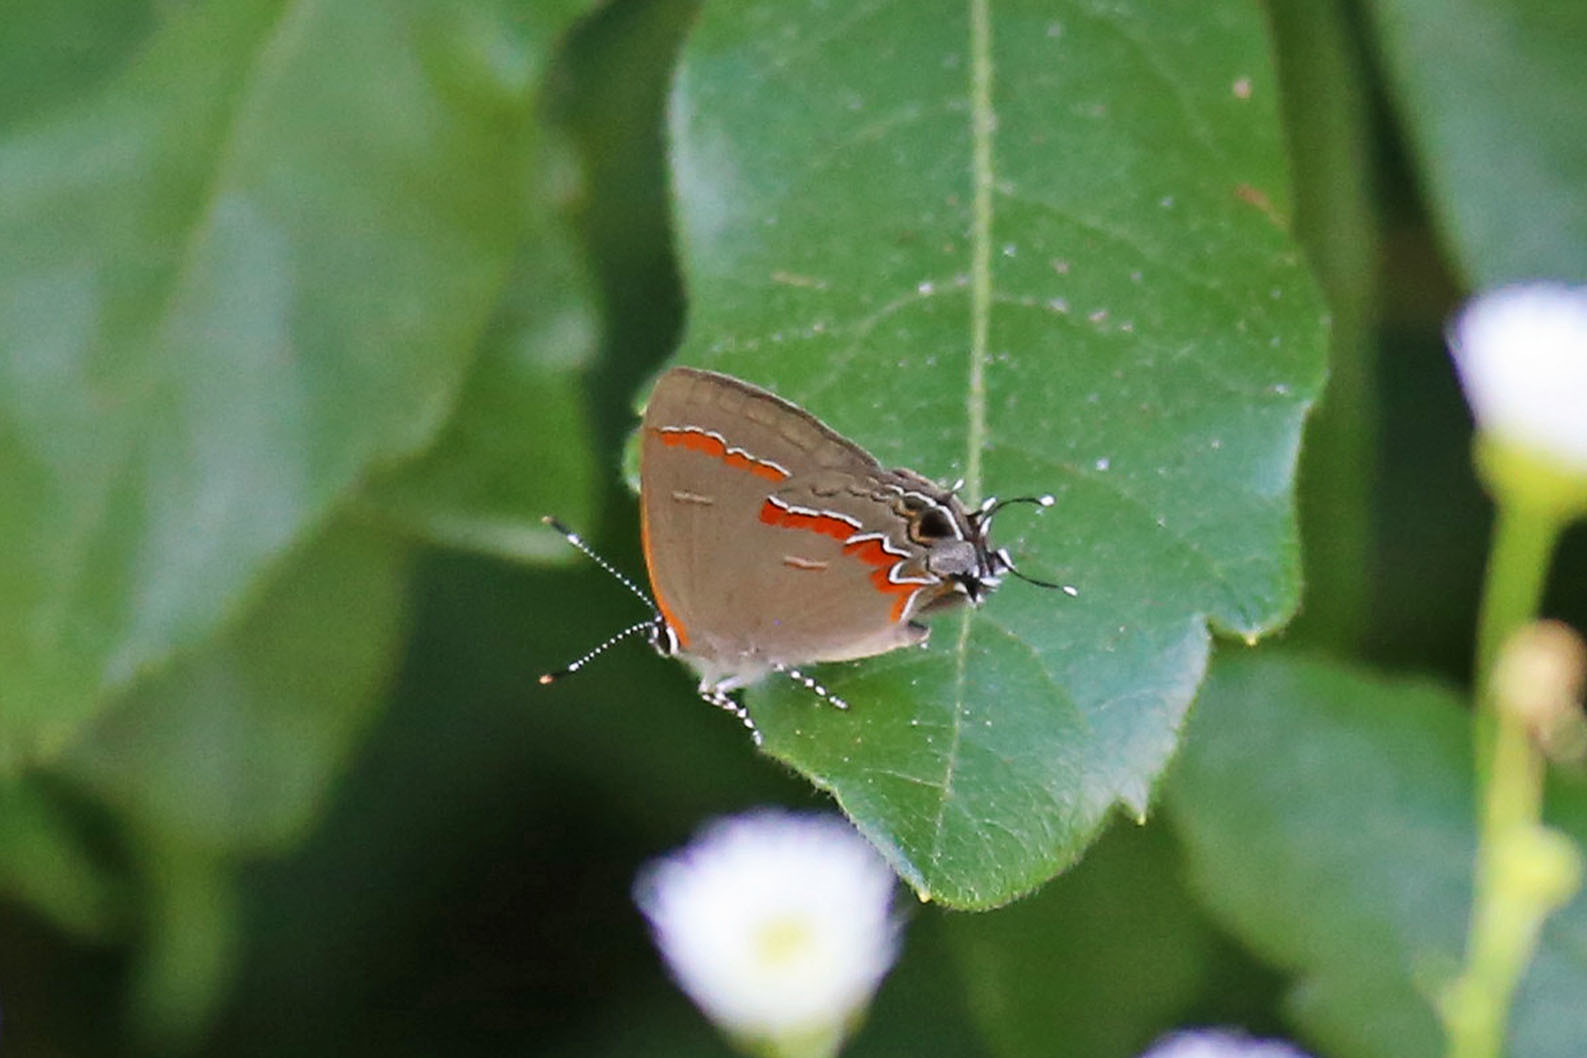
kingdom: Animalia
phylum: Arthropoda
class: Insecta
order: Lepidoptera
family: Lycaenidae
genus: Calycopis
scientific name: Calycopis cecrops
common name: Red-banded hairstreak
